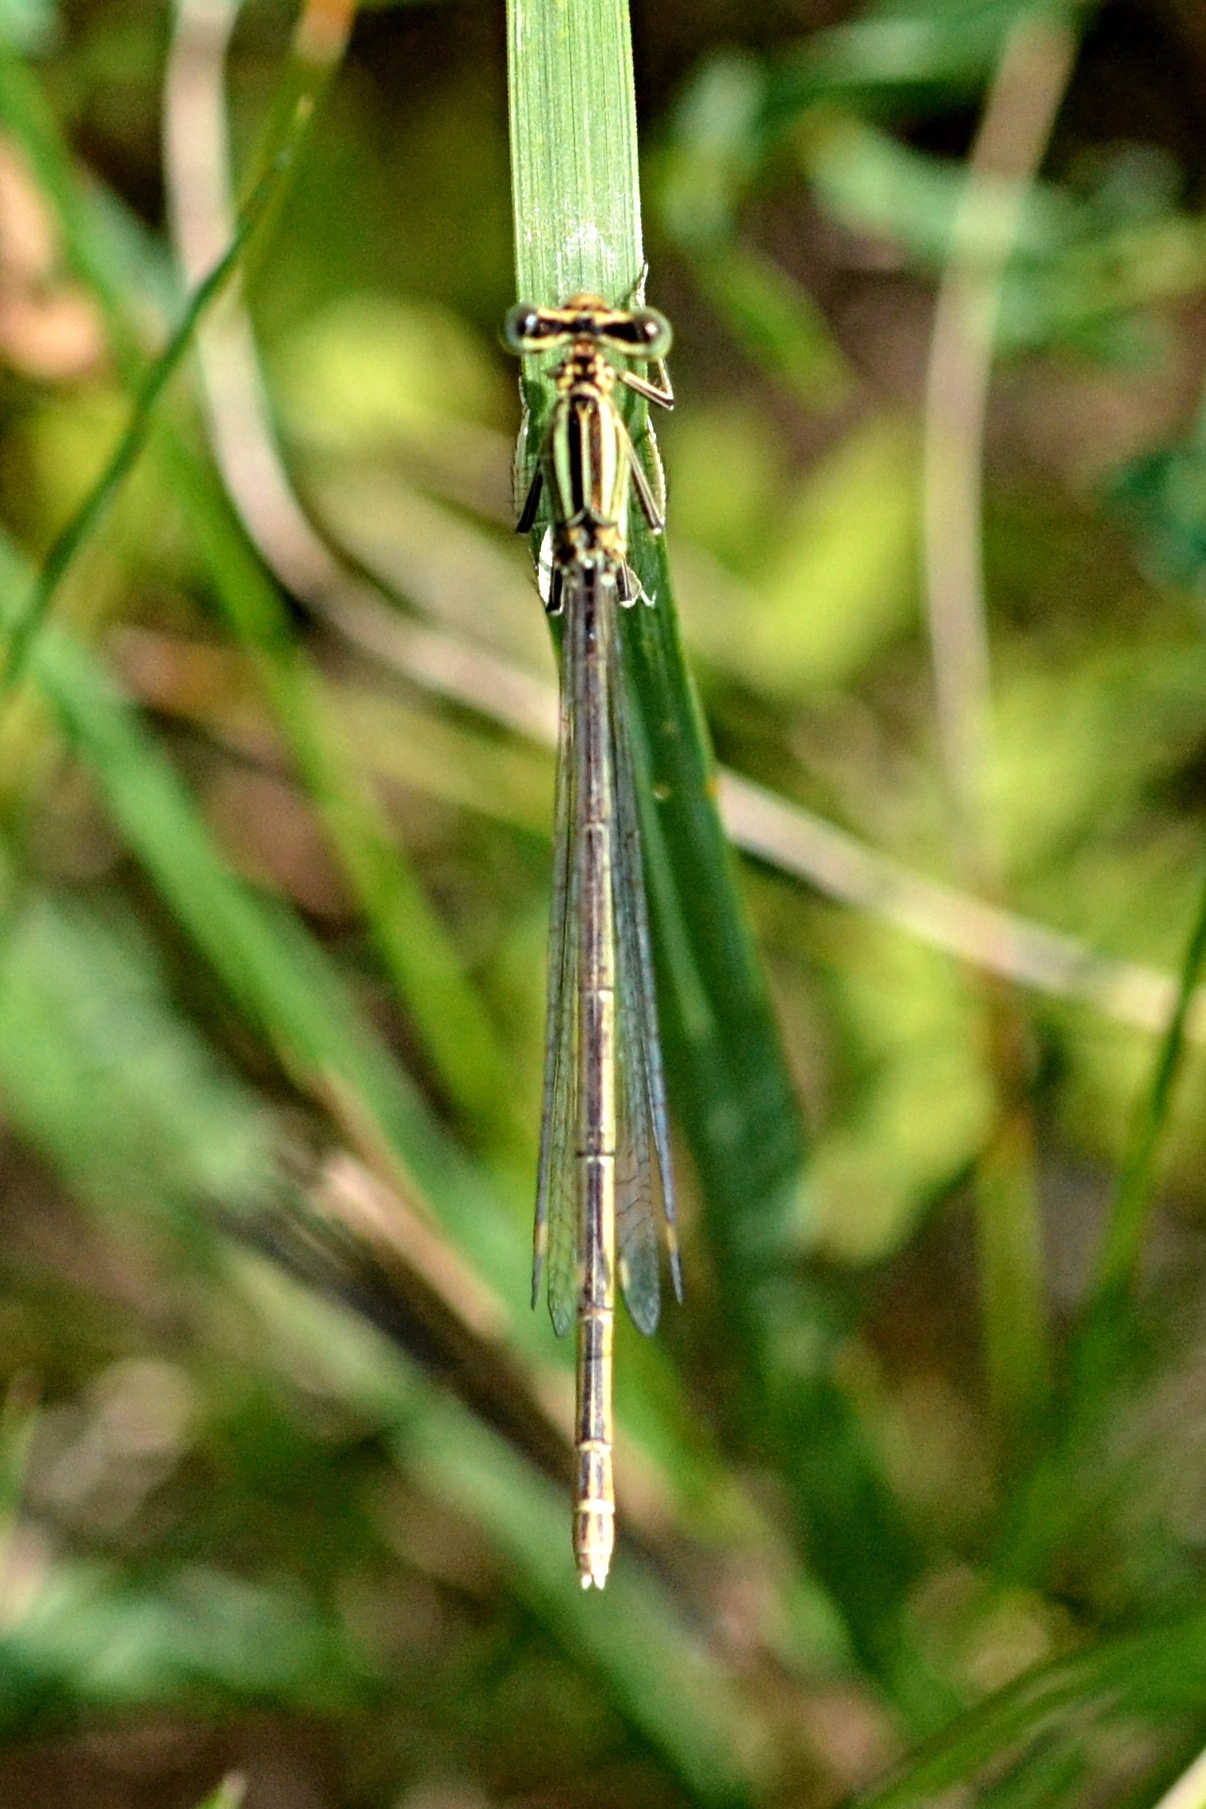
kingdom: Animalia
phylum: Arthropoda
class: Insecta
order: Odonata
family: Platycnemididae
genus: Platycnemis
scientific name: Platycnemis pennipes
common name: White-legged damselfly
